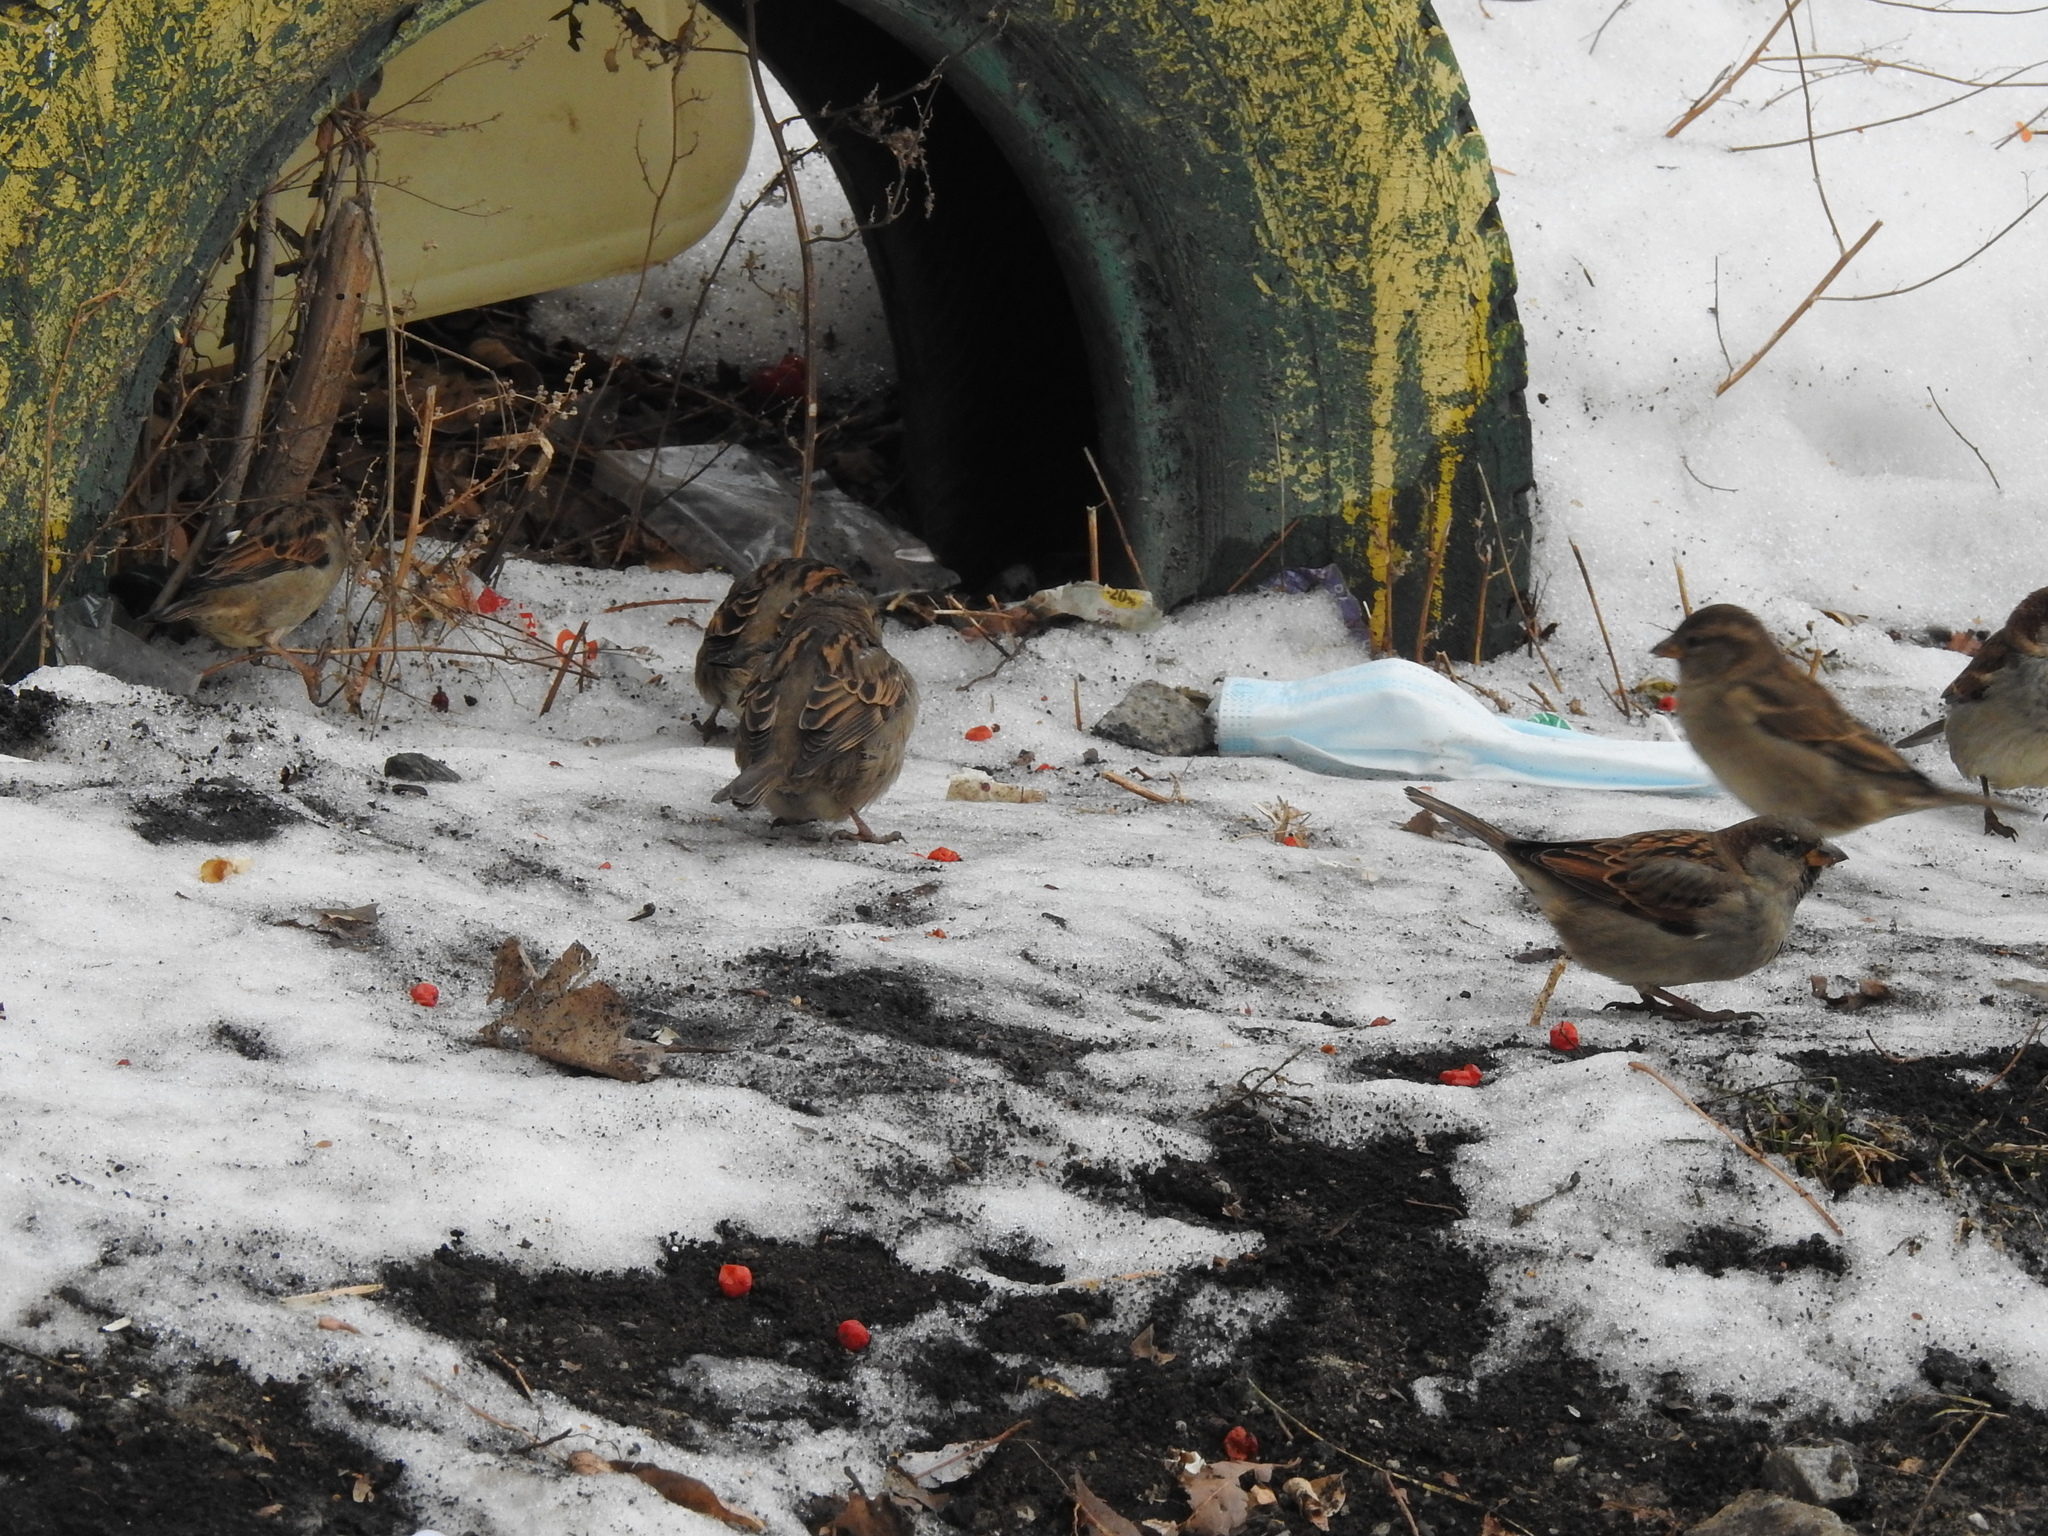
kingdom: Animalia
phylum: Chordata
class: Aves
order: Passeriformes
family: Passeridae
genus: Passer
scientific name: Passer domesticus
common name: House sparrow
